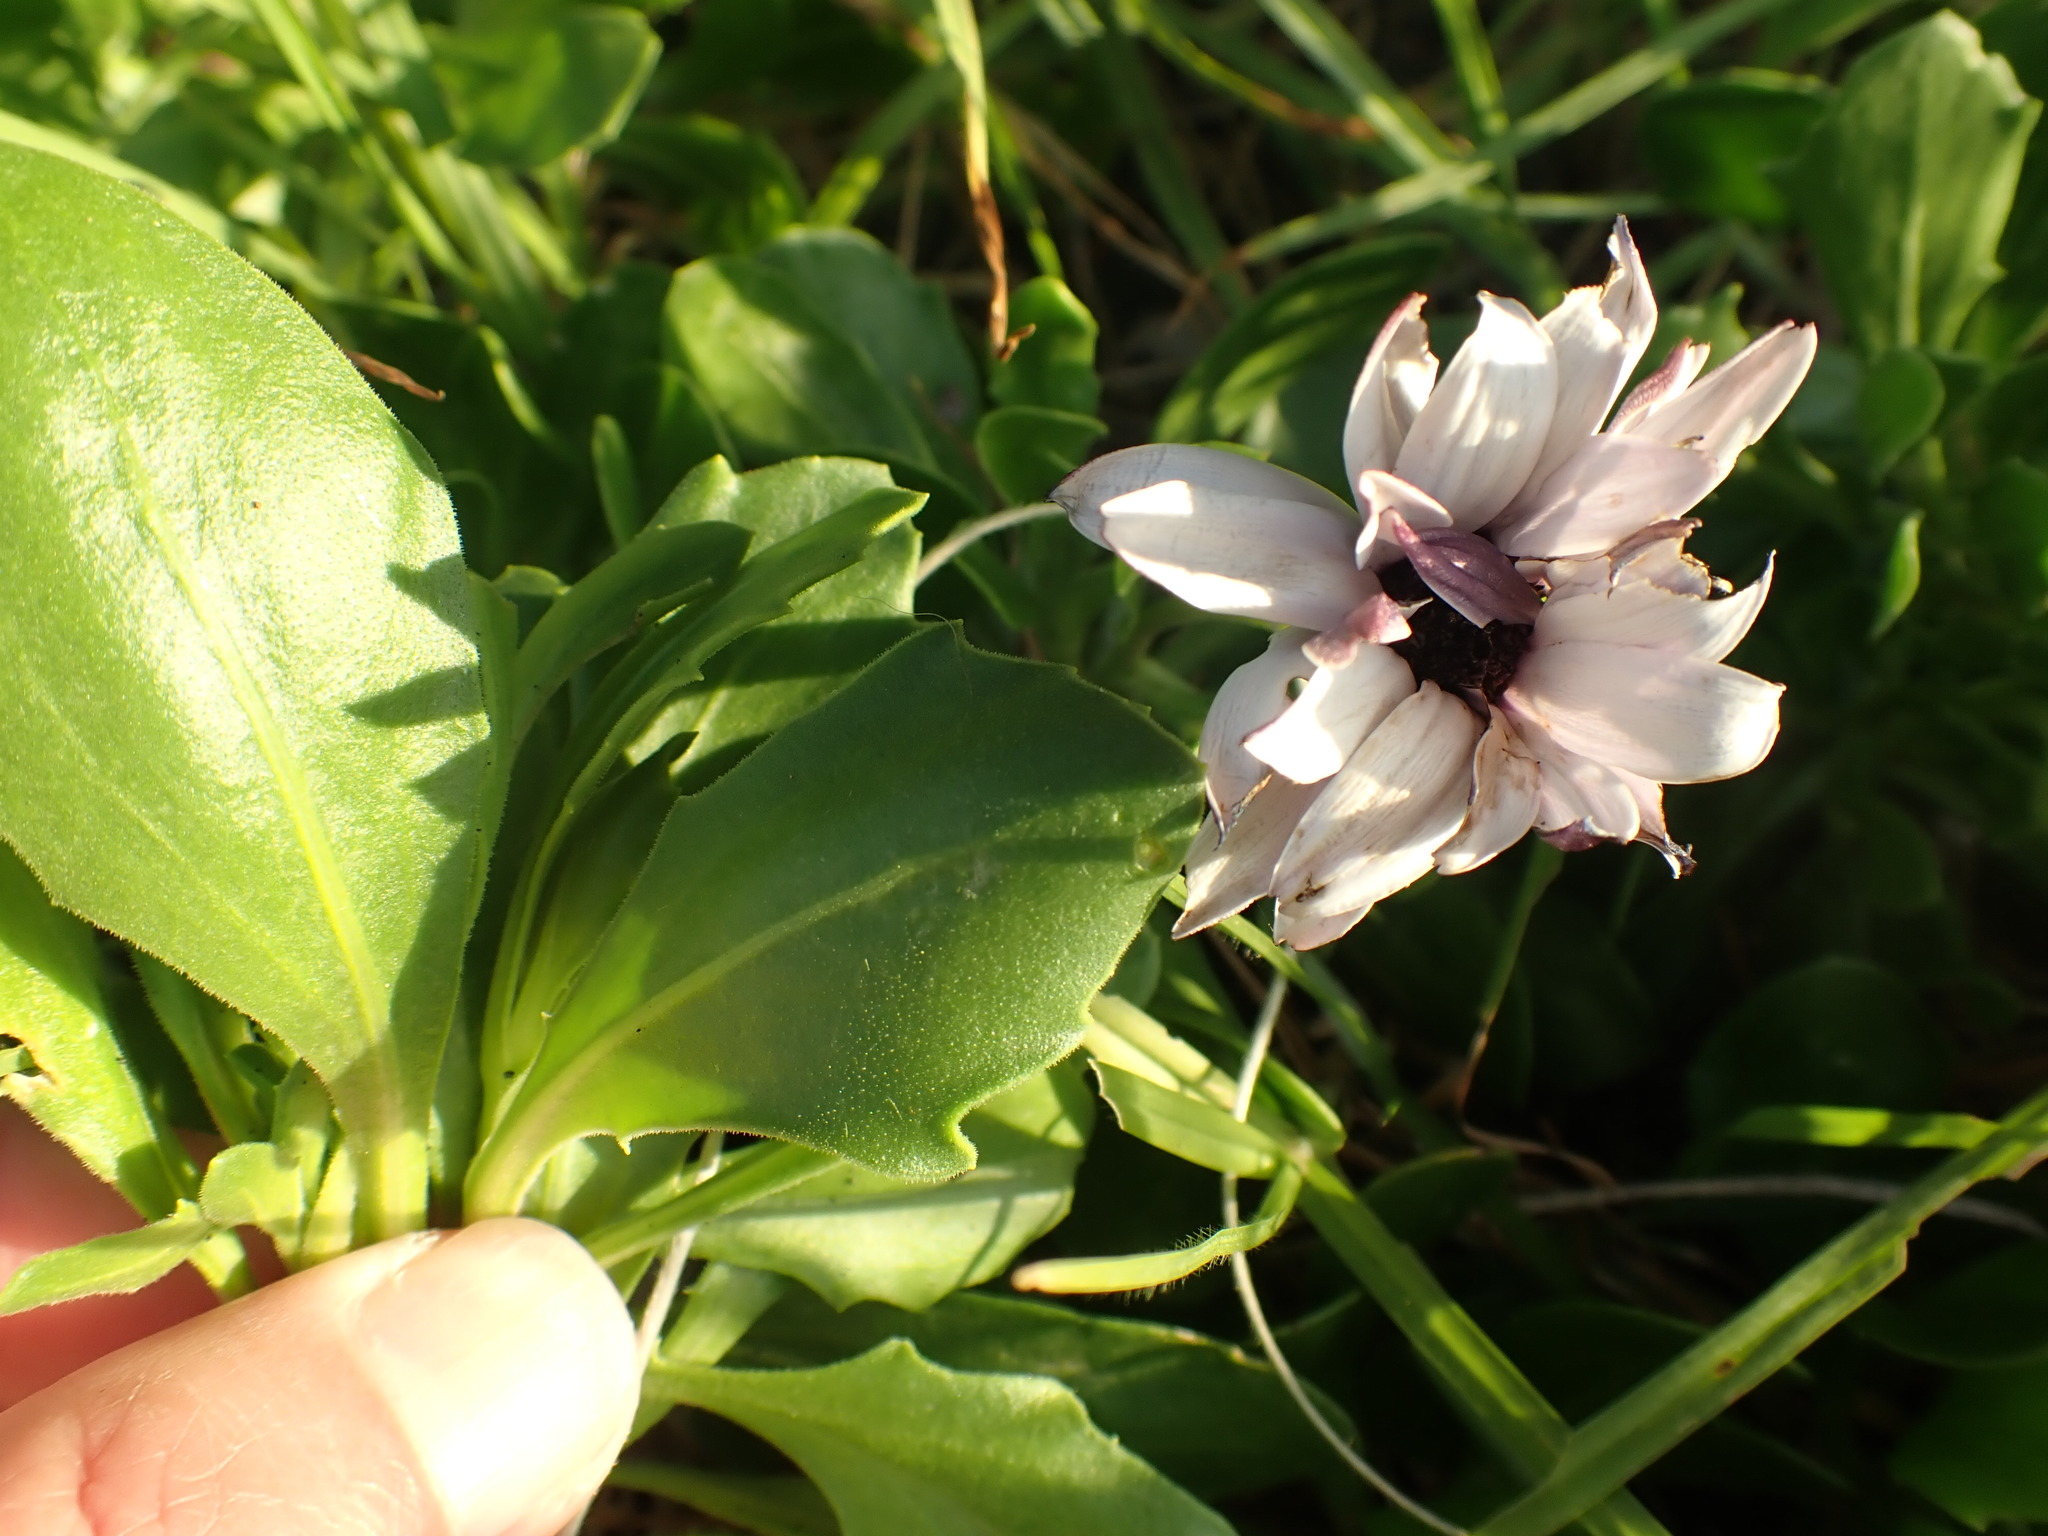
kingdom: Plantae
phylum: Tracheophyta
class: Magnoliopsida
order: Asterales
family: Asteraceae
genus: Dimorphotheca
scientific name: Dimorphotheca fruticosa
